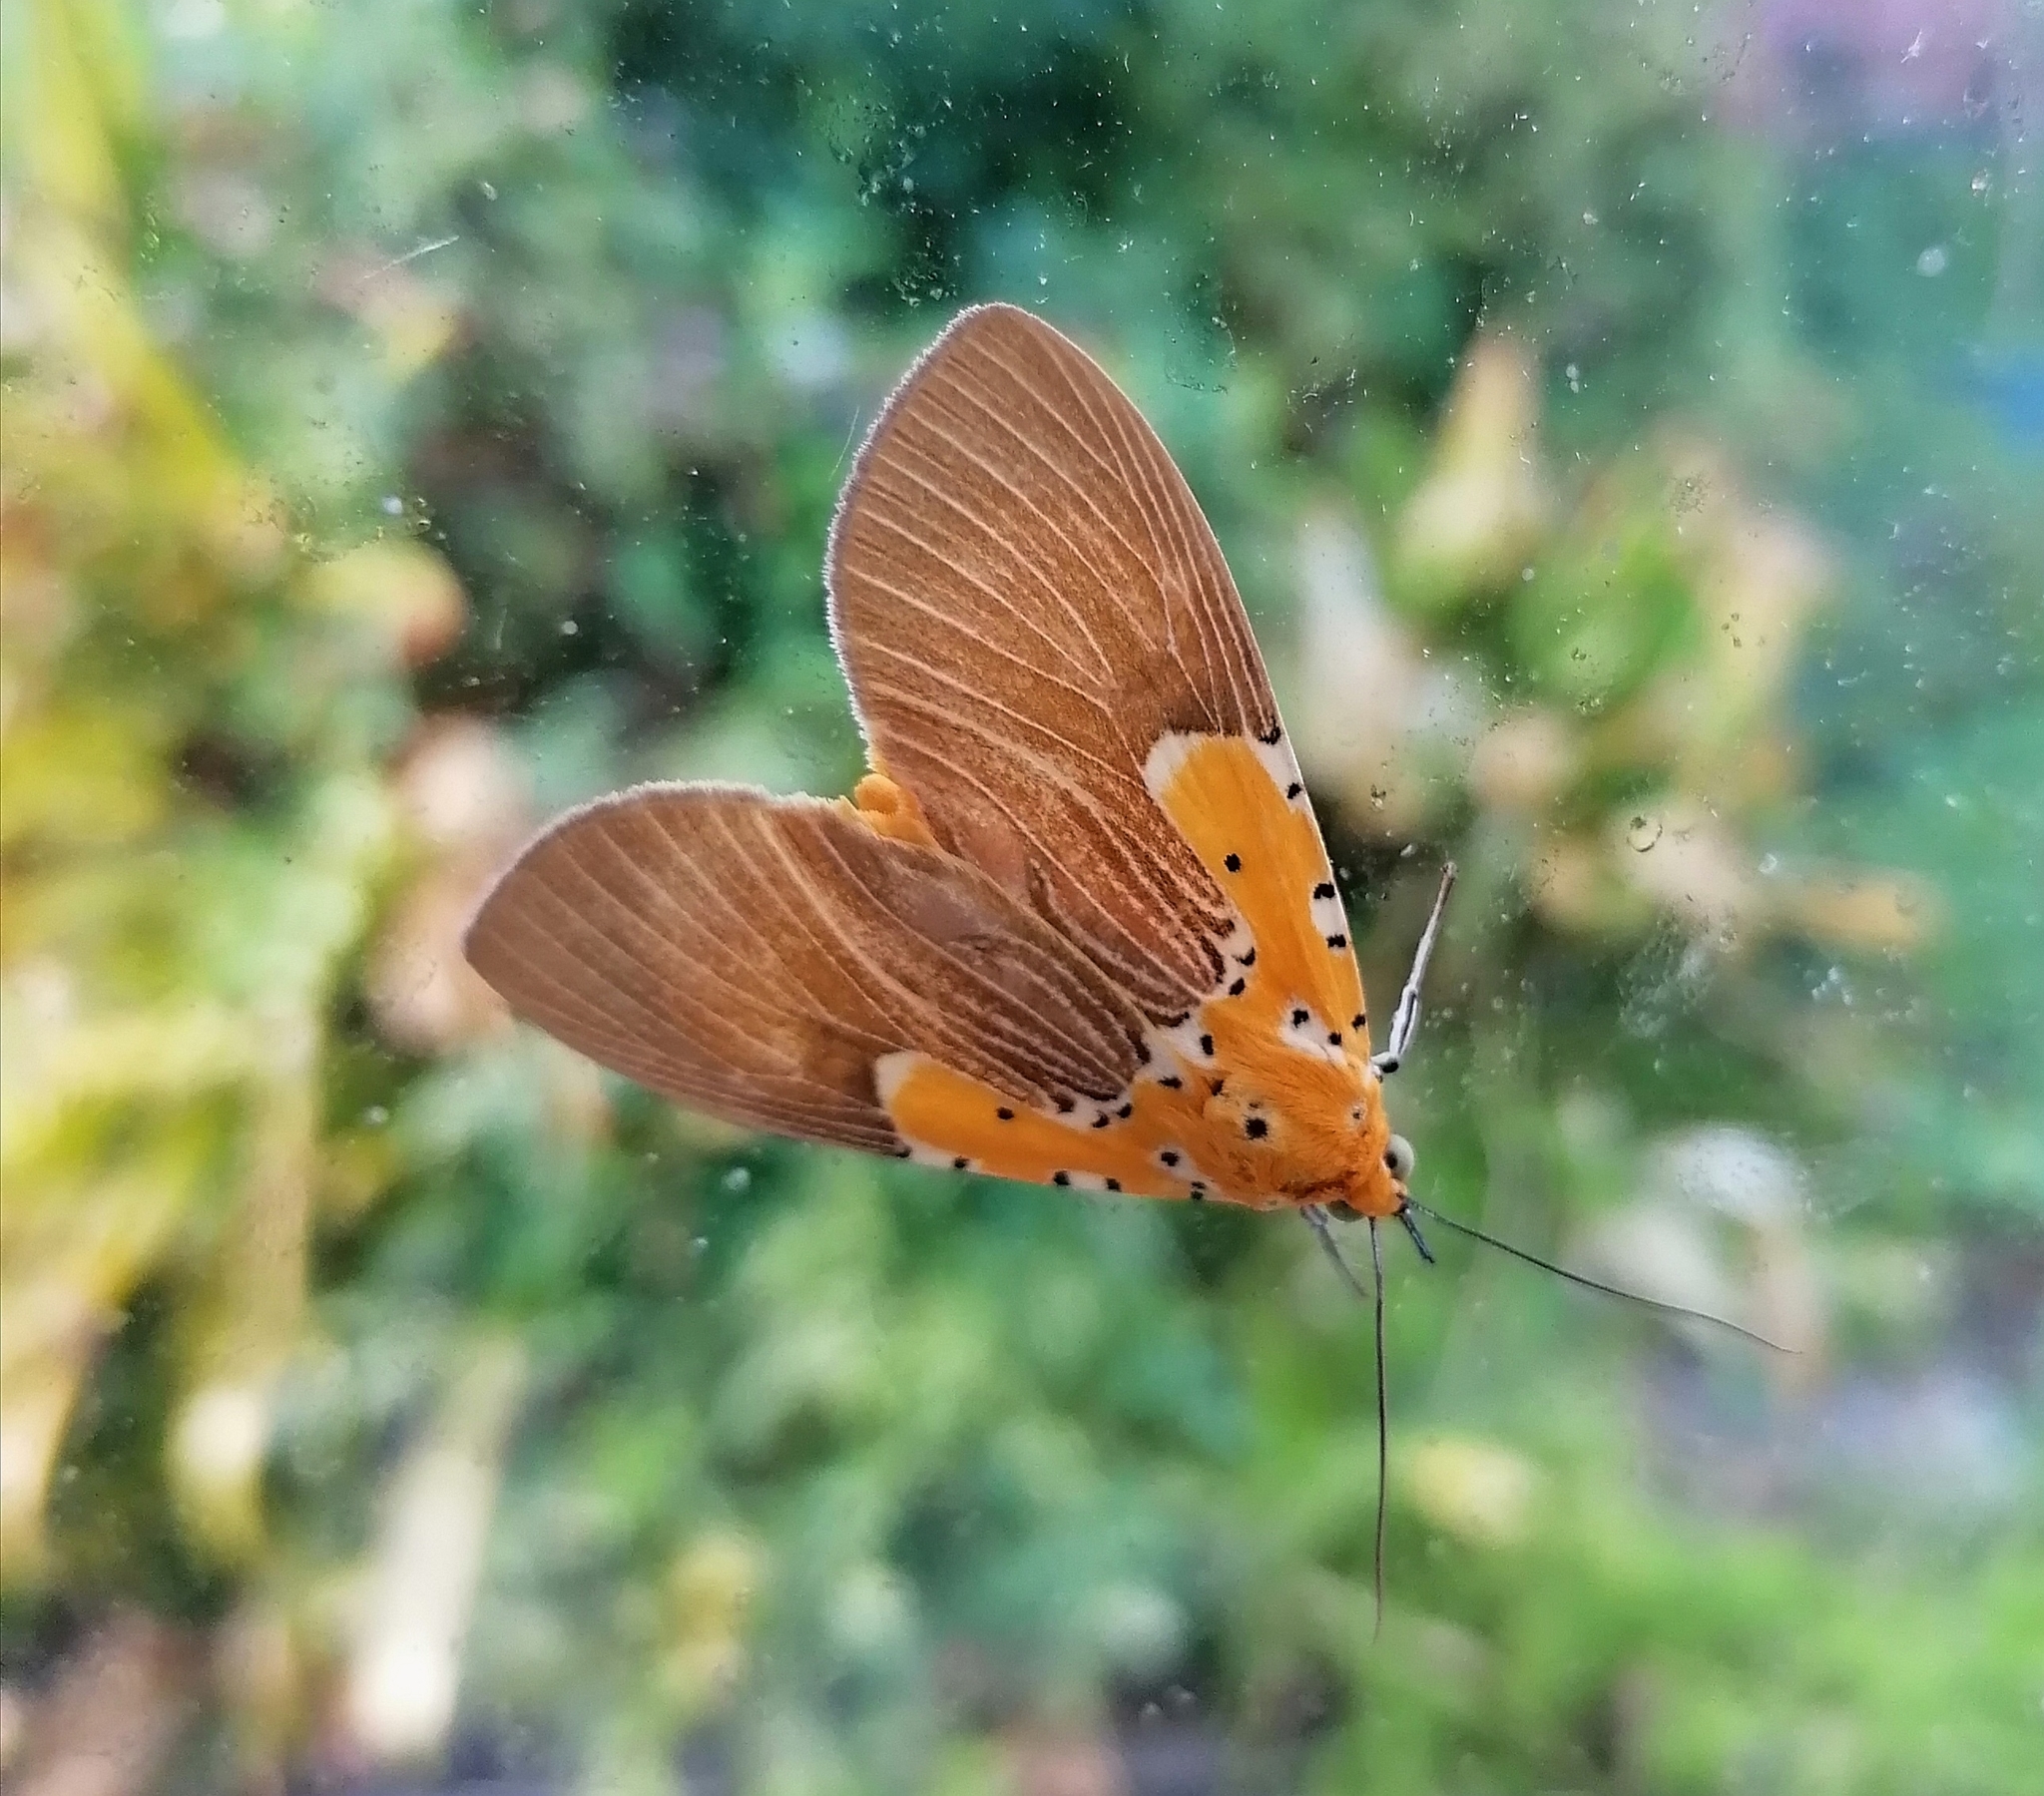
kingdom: Animalia
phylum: Arthropoda
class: Insecta
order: Lepidoptera
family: Erebidae
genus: Asota
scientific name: Asota speciosa
